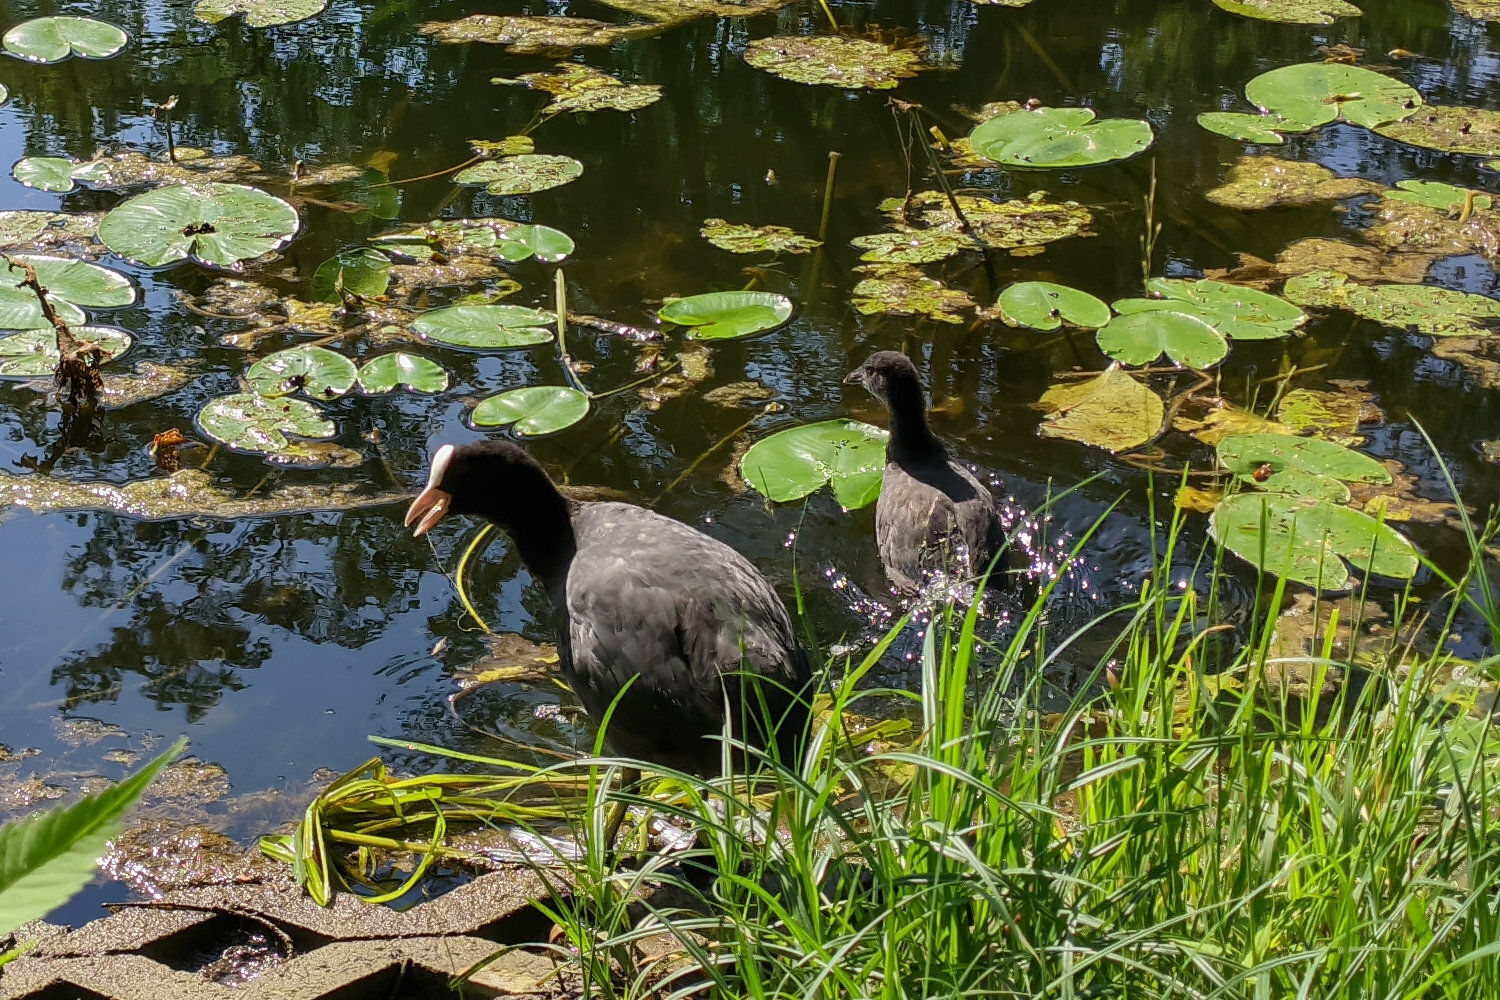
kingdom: Animalia
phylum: Chordata
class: Aves
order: Gruiformes
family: Rallidae
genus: Fulica
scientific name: Fulica atra
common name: Eurasian coot
